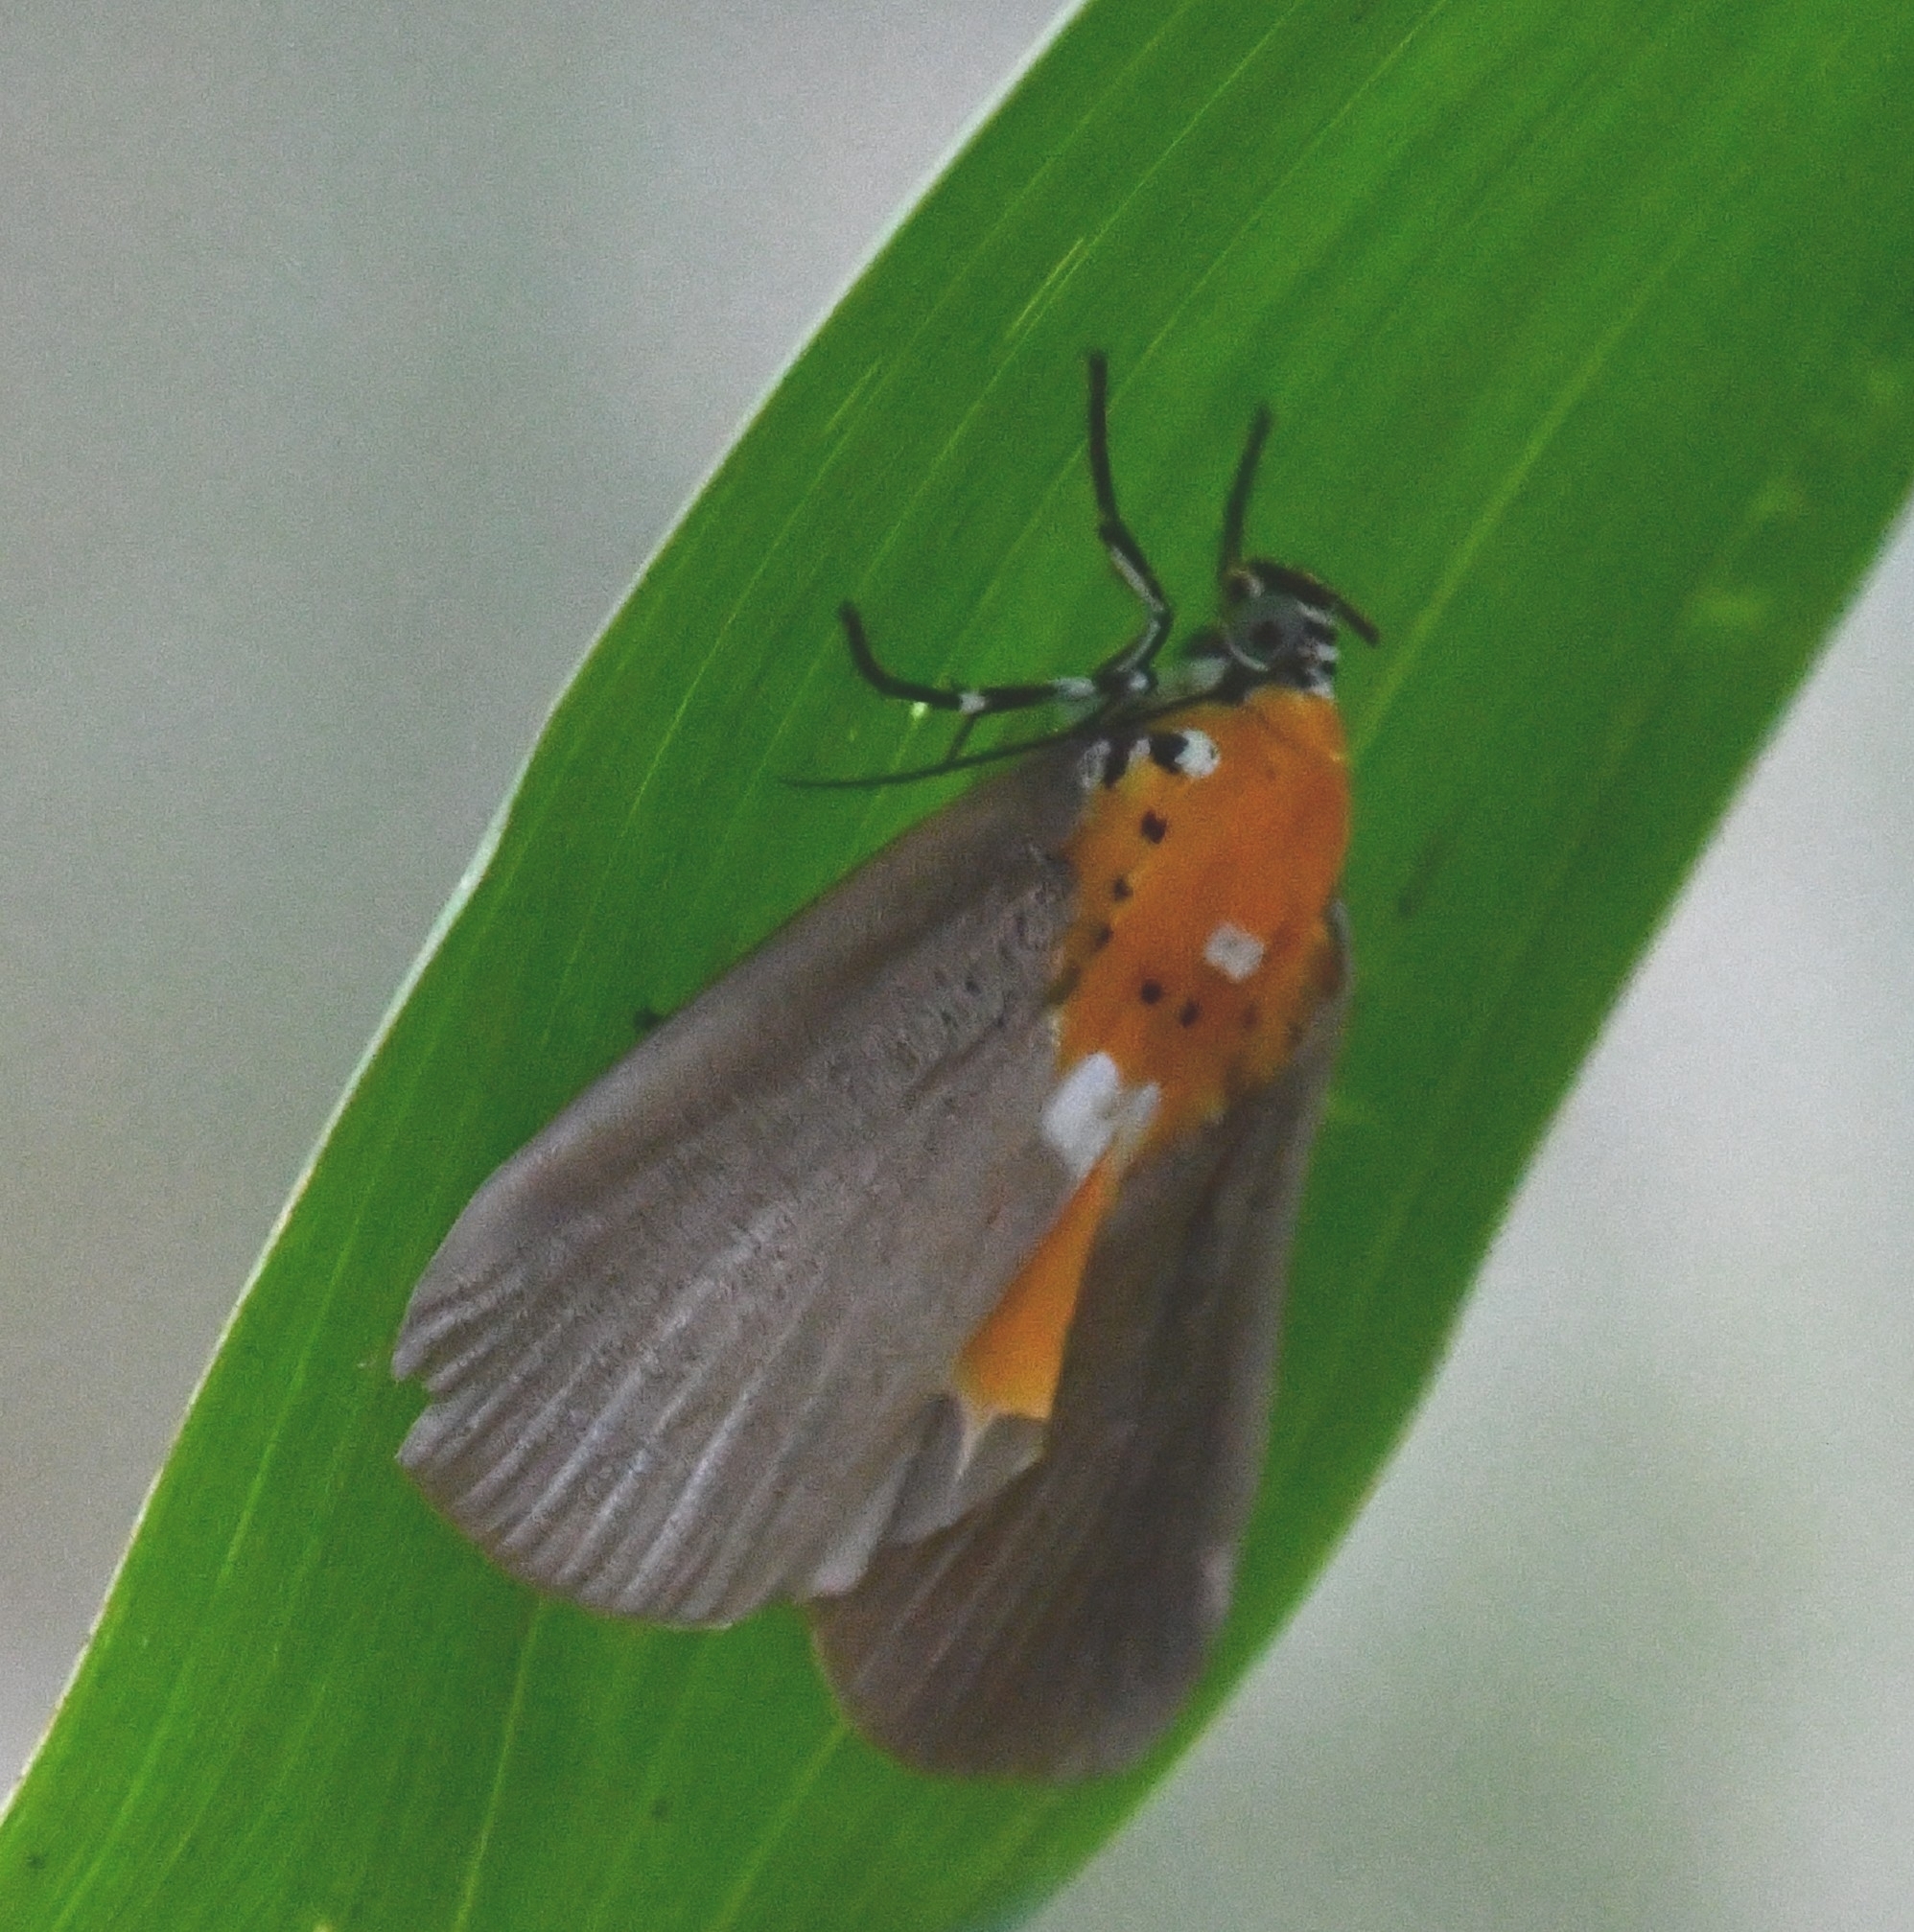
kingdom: Animalia
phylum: Arthropoda
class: Insecta
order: Lepidoptera
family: Erebidae
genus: Peridrome
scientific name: Peridrome orbicularis
